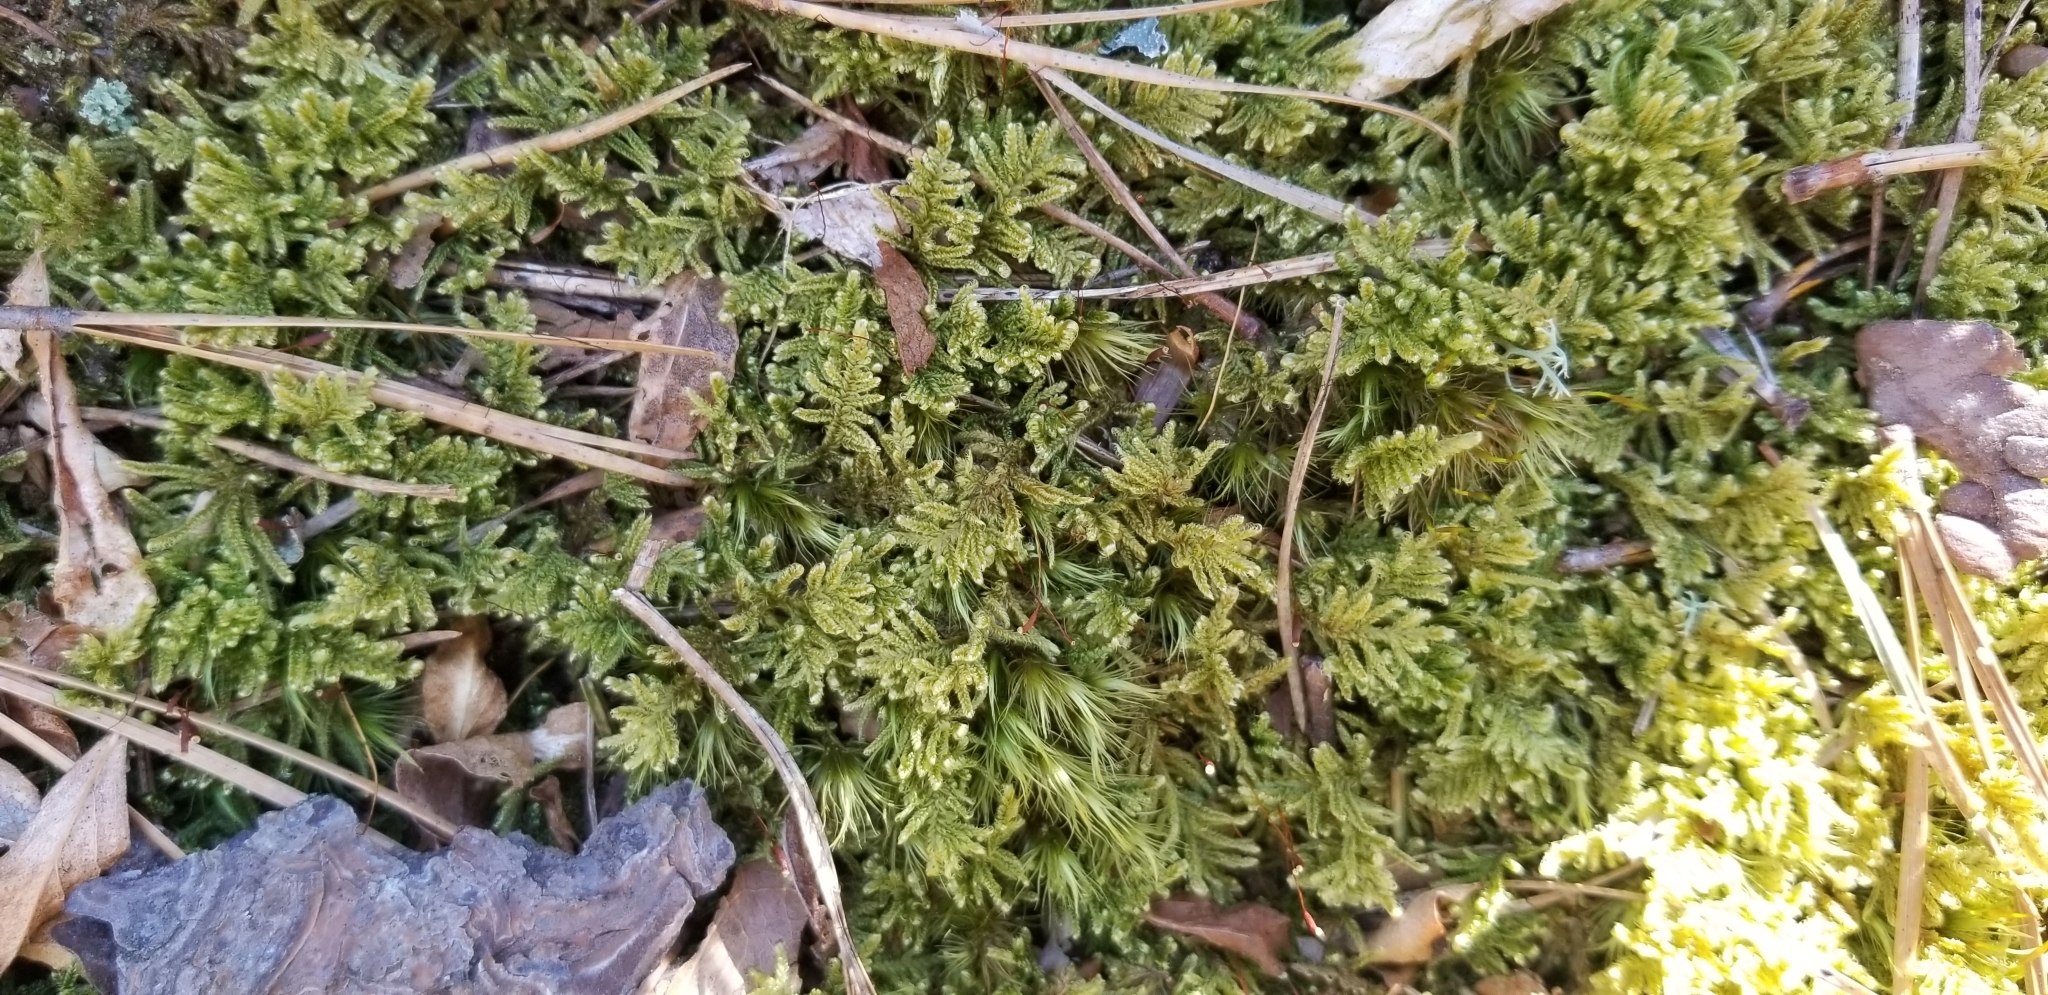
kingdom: Plantae
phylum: Bryophyta
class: Bryopsida
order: Hypnales
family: Callicladiaceae
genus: Callicladium
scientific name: Callicladium imponens
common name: Brocade moss
